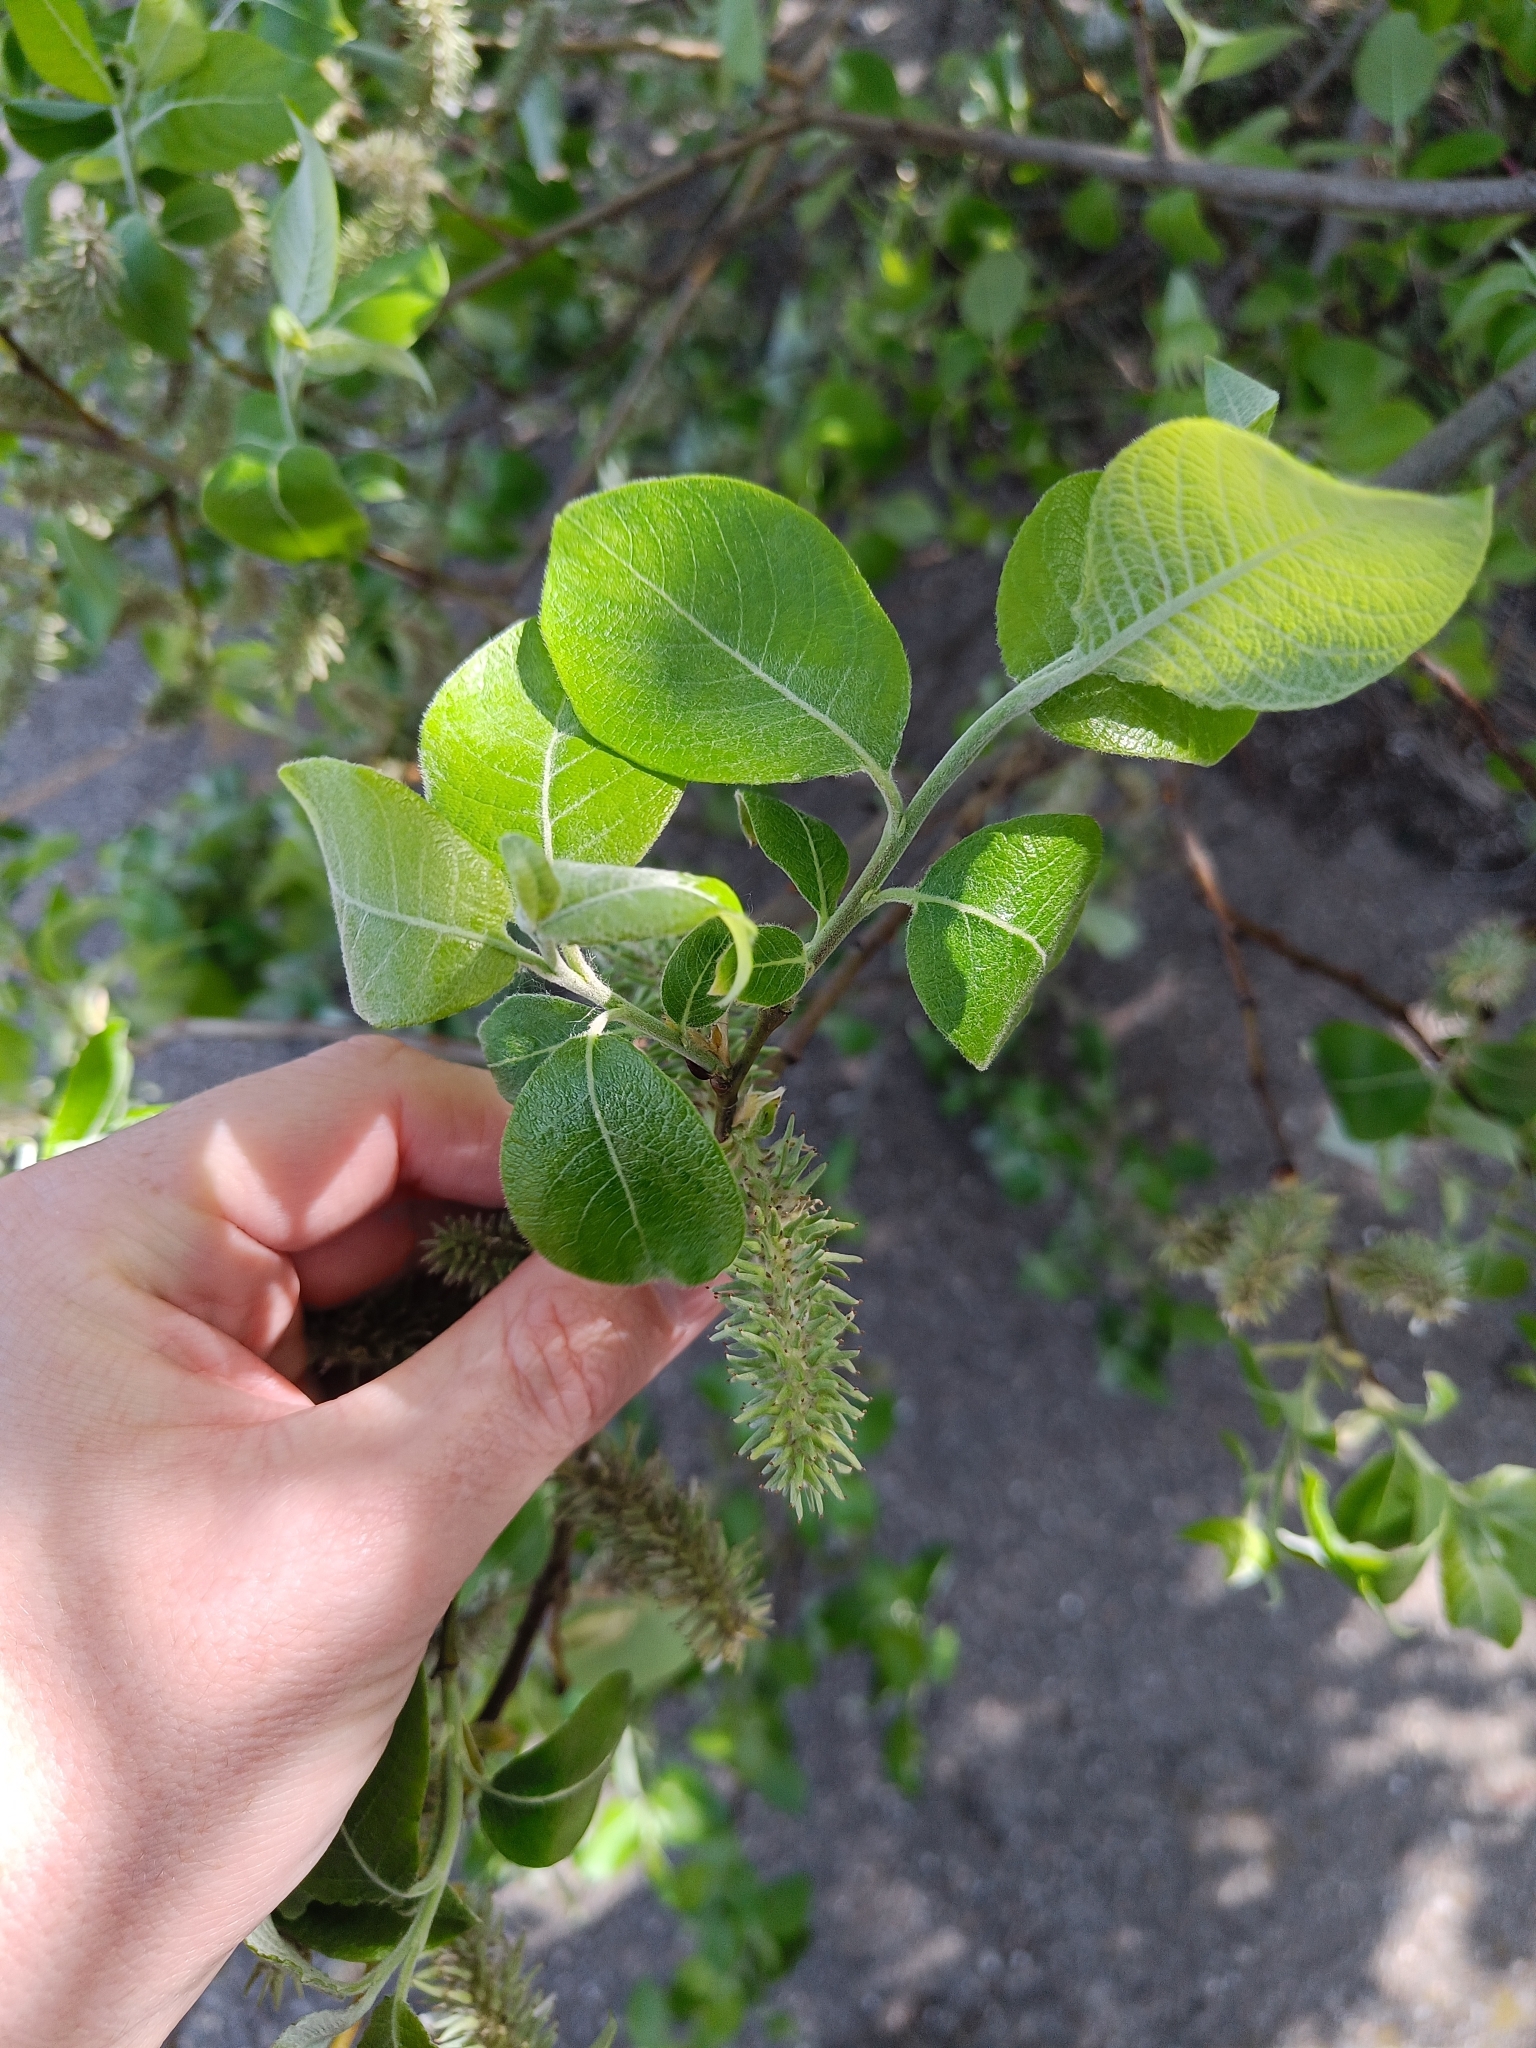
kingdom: Plantae
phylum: Tracheophyta
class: Magnoliopsida
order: Malpighiales
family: Salicaceae
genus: Salix
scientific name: Salix caprea
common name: Goat willow
